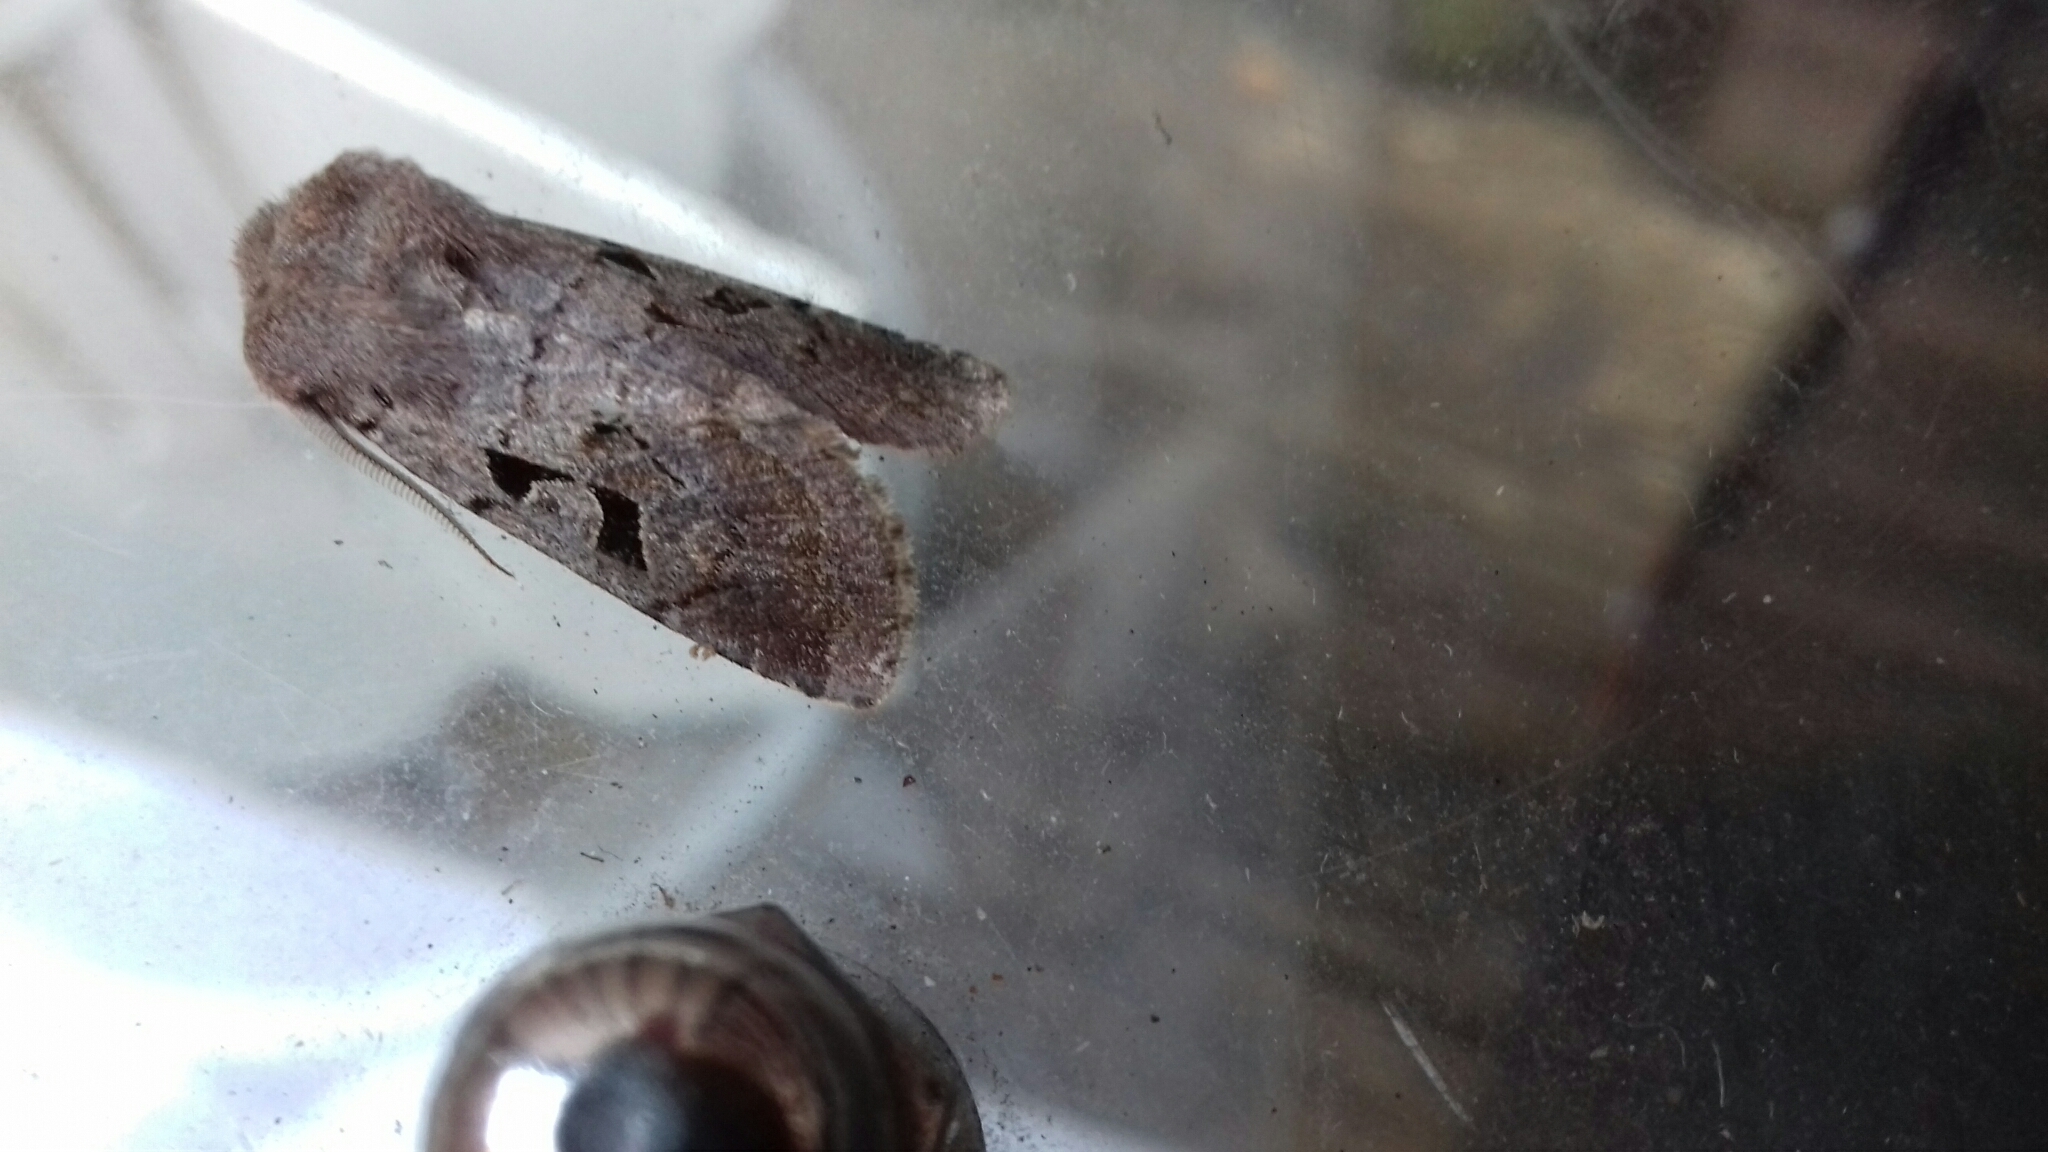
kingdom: Animalia
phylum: Arthropoda
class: Insecta
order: Lepidoptera
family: Noctuidae
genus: Orthosia
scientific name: Orthosia gothica
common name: Hebrew character
